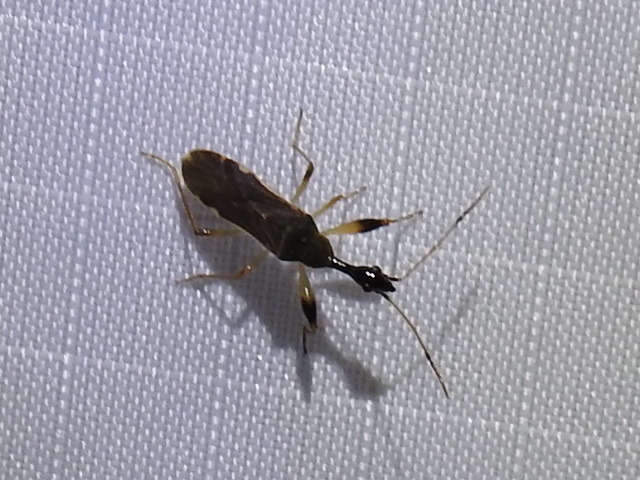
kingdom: Animalia
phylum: Arthropoda
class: Insecta
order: Hemiptera
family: Rhyparochromidae
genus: Myodocha
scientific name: Myodocha serripes
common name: Long-necked seed bug
